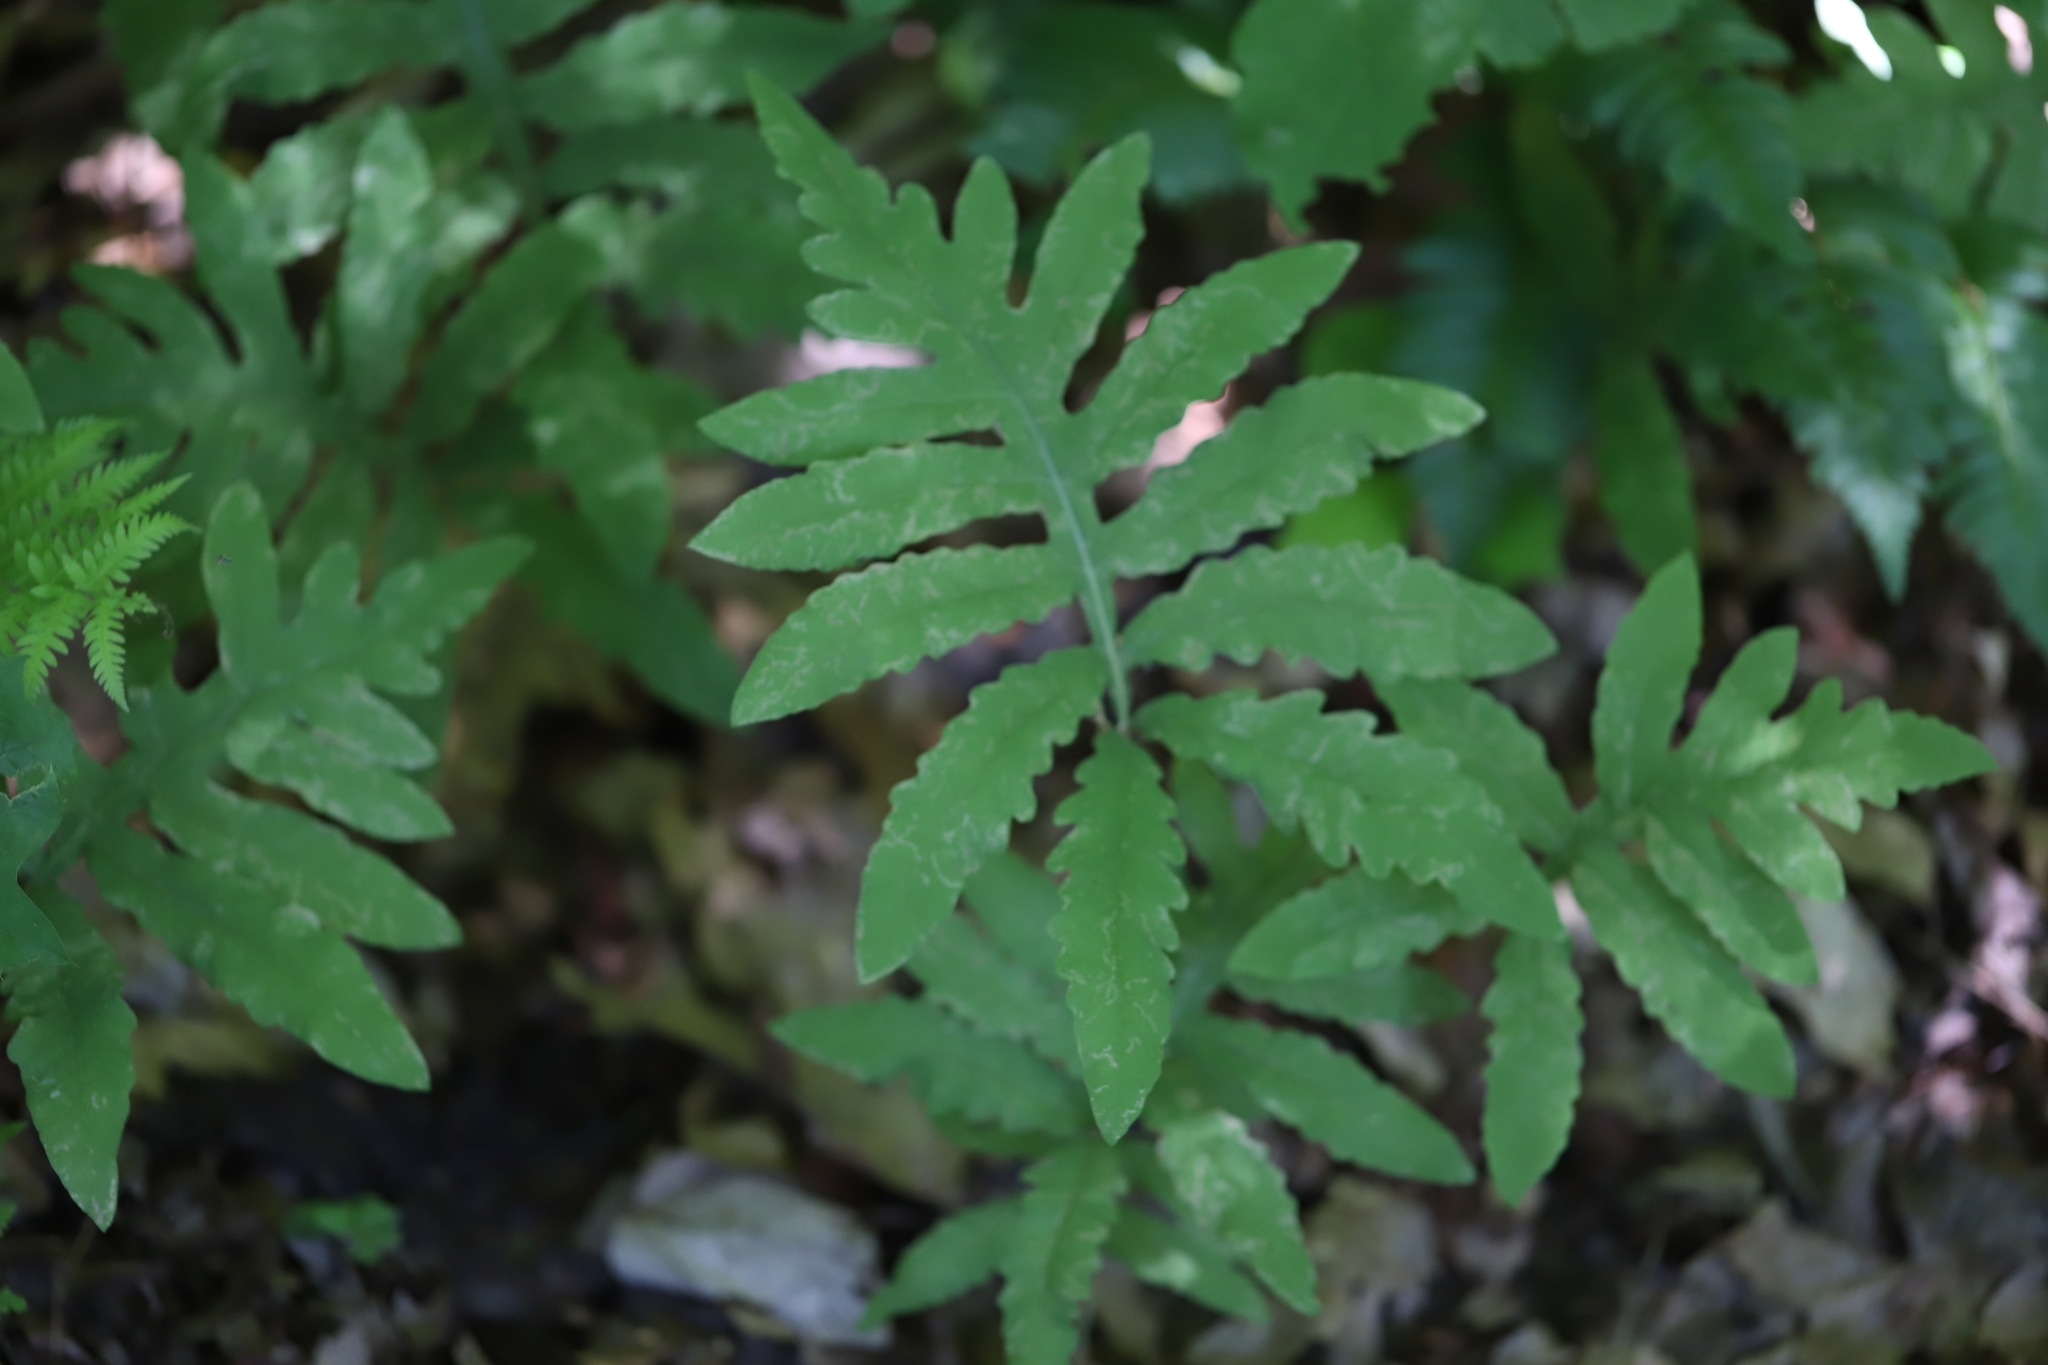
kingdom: Plantae
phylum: Tracheophyta
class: Polypodiopsida
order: Polypodiales
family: Onocleaceae
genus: Onoclea
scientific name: Onoclea sensibilis
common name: Sensitive fern
